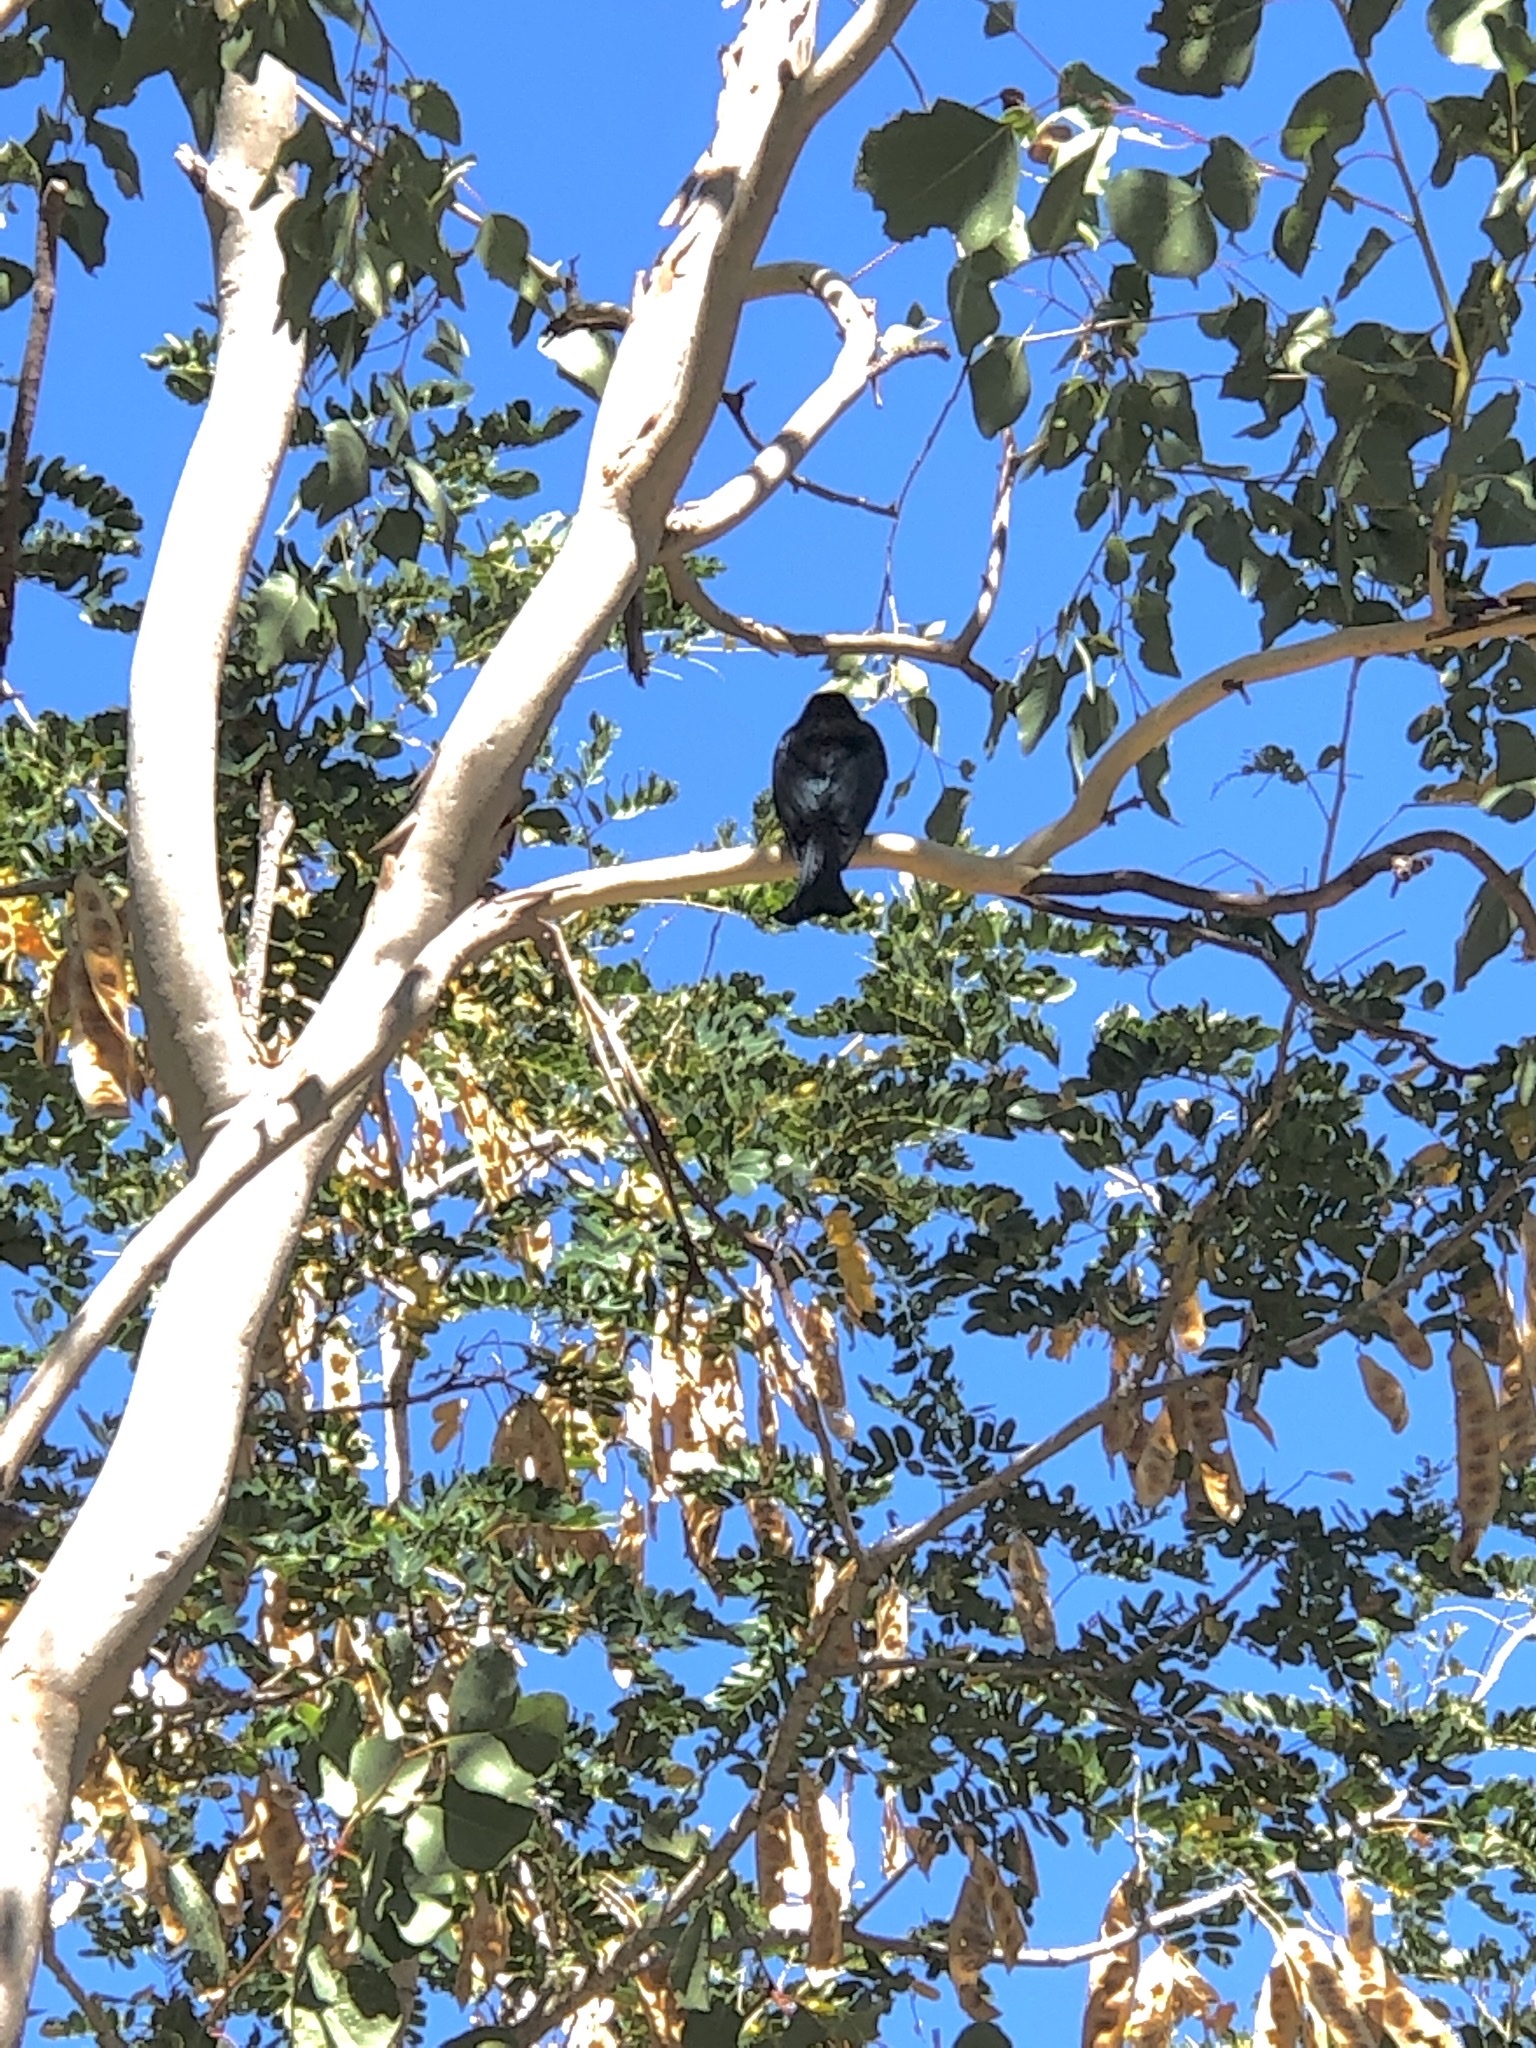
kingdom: Animalia
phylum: Chordata
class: Aves
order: Passeriformes
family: Dicruridae
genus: Dicrurus
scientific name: Dicrurus bracteatus
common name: Spangled drongo
